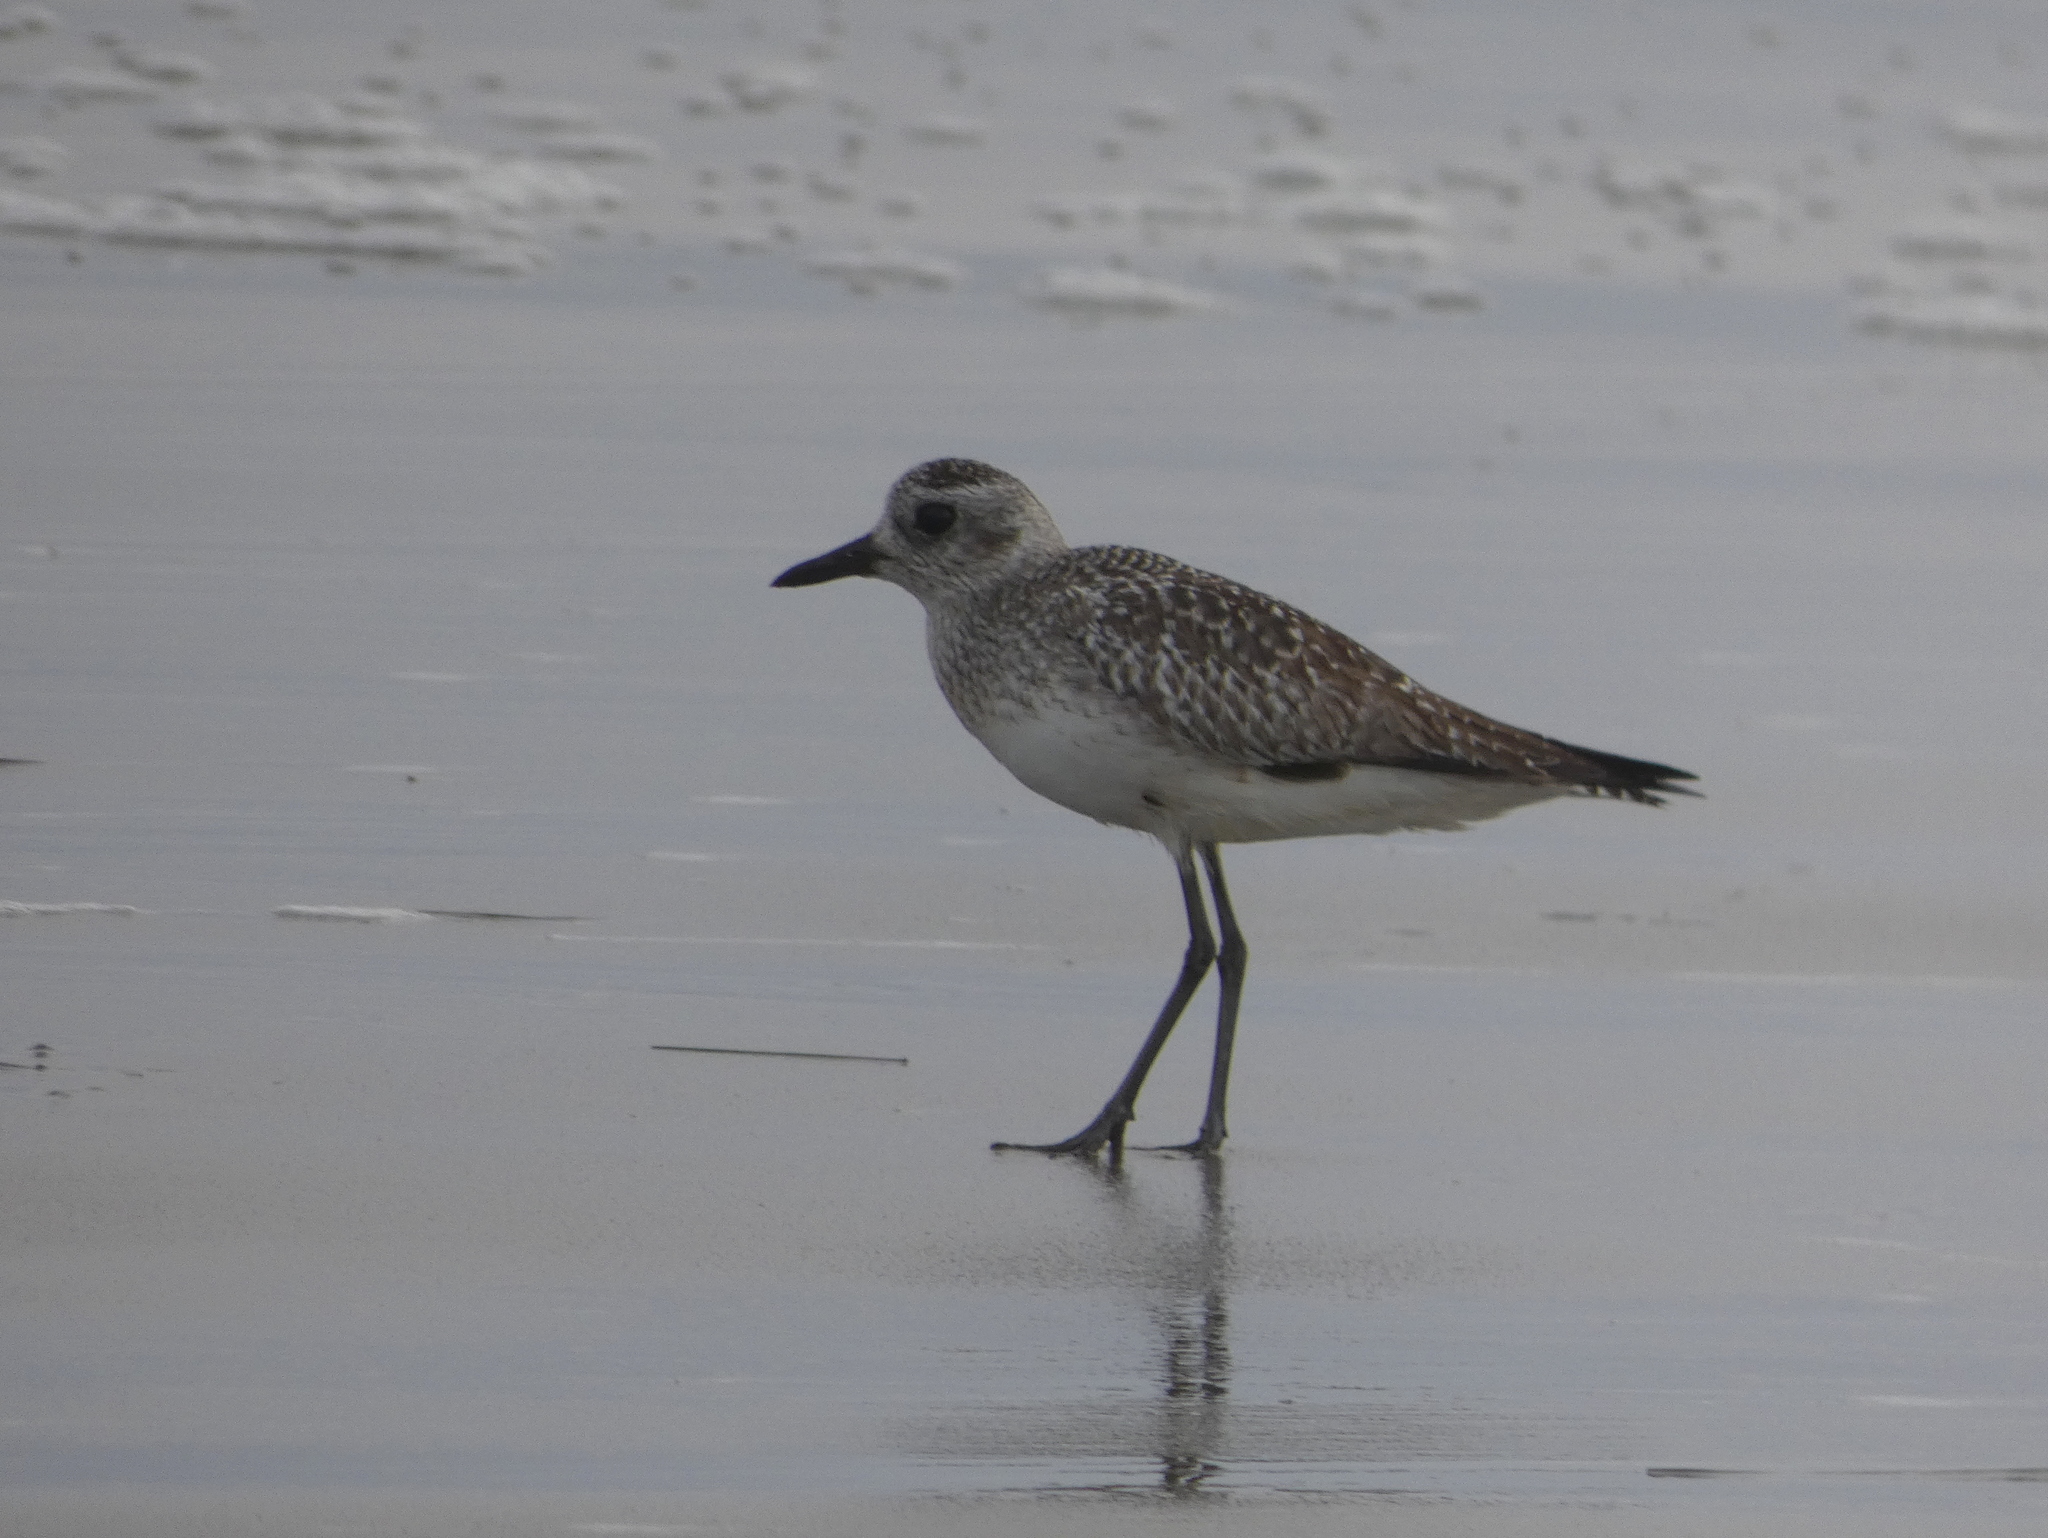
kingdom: Animalia
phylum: Chordata
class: Aves
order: Charadriiformes
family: Charadriidae
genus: Pluvialis
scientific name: Pluvialis squatarola
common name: Grey plover
